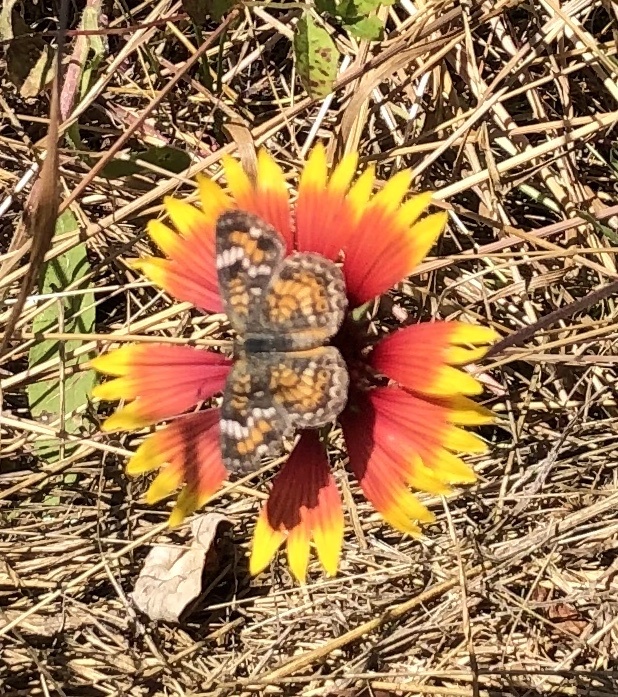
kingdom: Animalia
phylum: Arthropoda
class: Insecta
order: Lepidoptera
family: Nymphalidae
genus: Phyciodes
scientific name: Phyciodes phaon
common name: Phaon crescent
